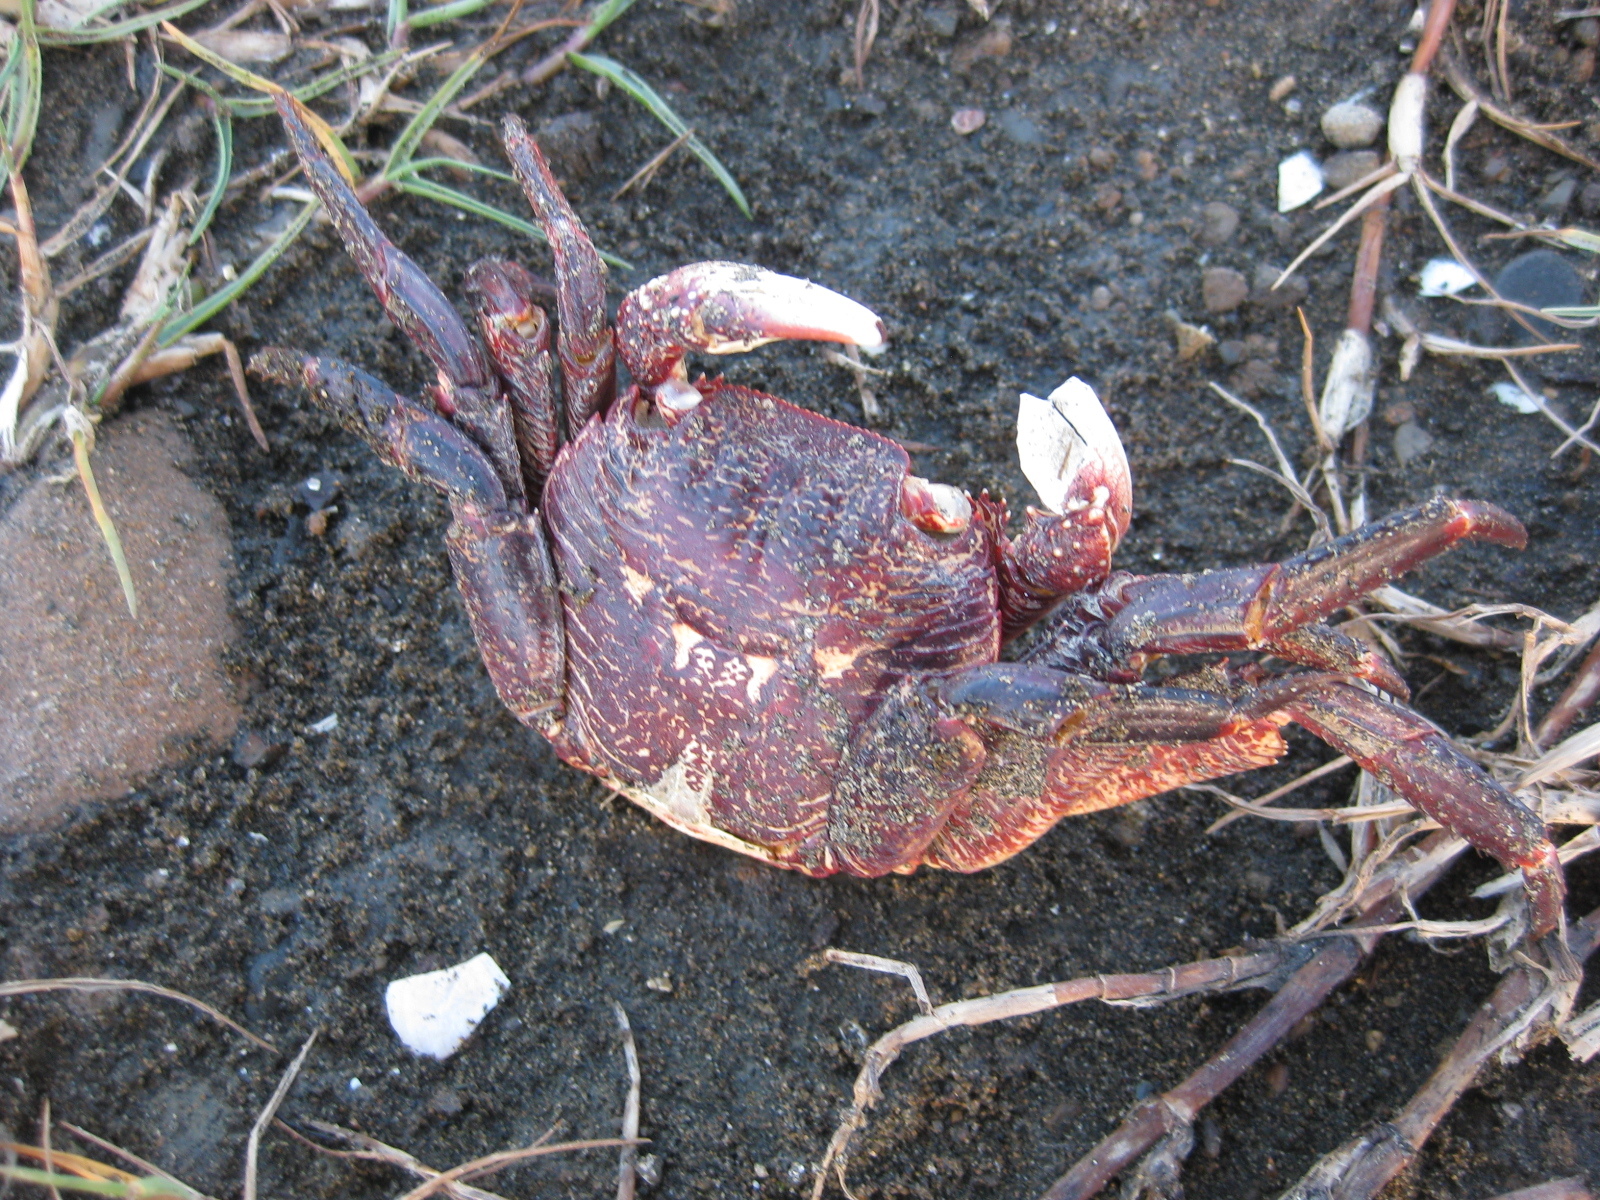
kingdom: Animalia
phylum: Arthropoda
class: Malacostraca
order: Decapoda
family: Grapsidae
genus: Leptograpsus
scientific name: Leptograpsus variegatus
